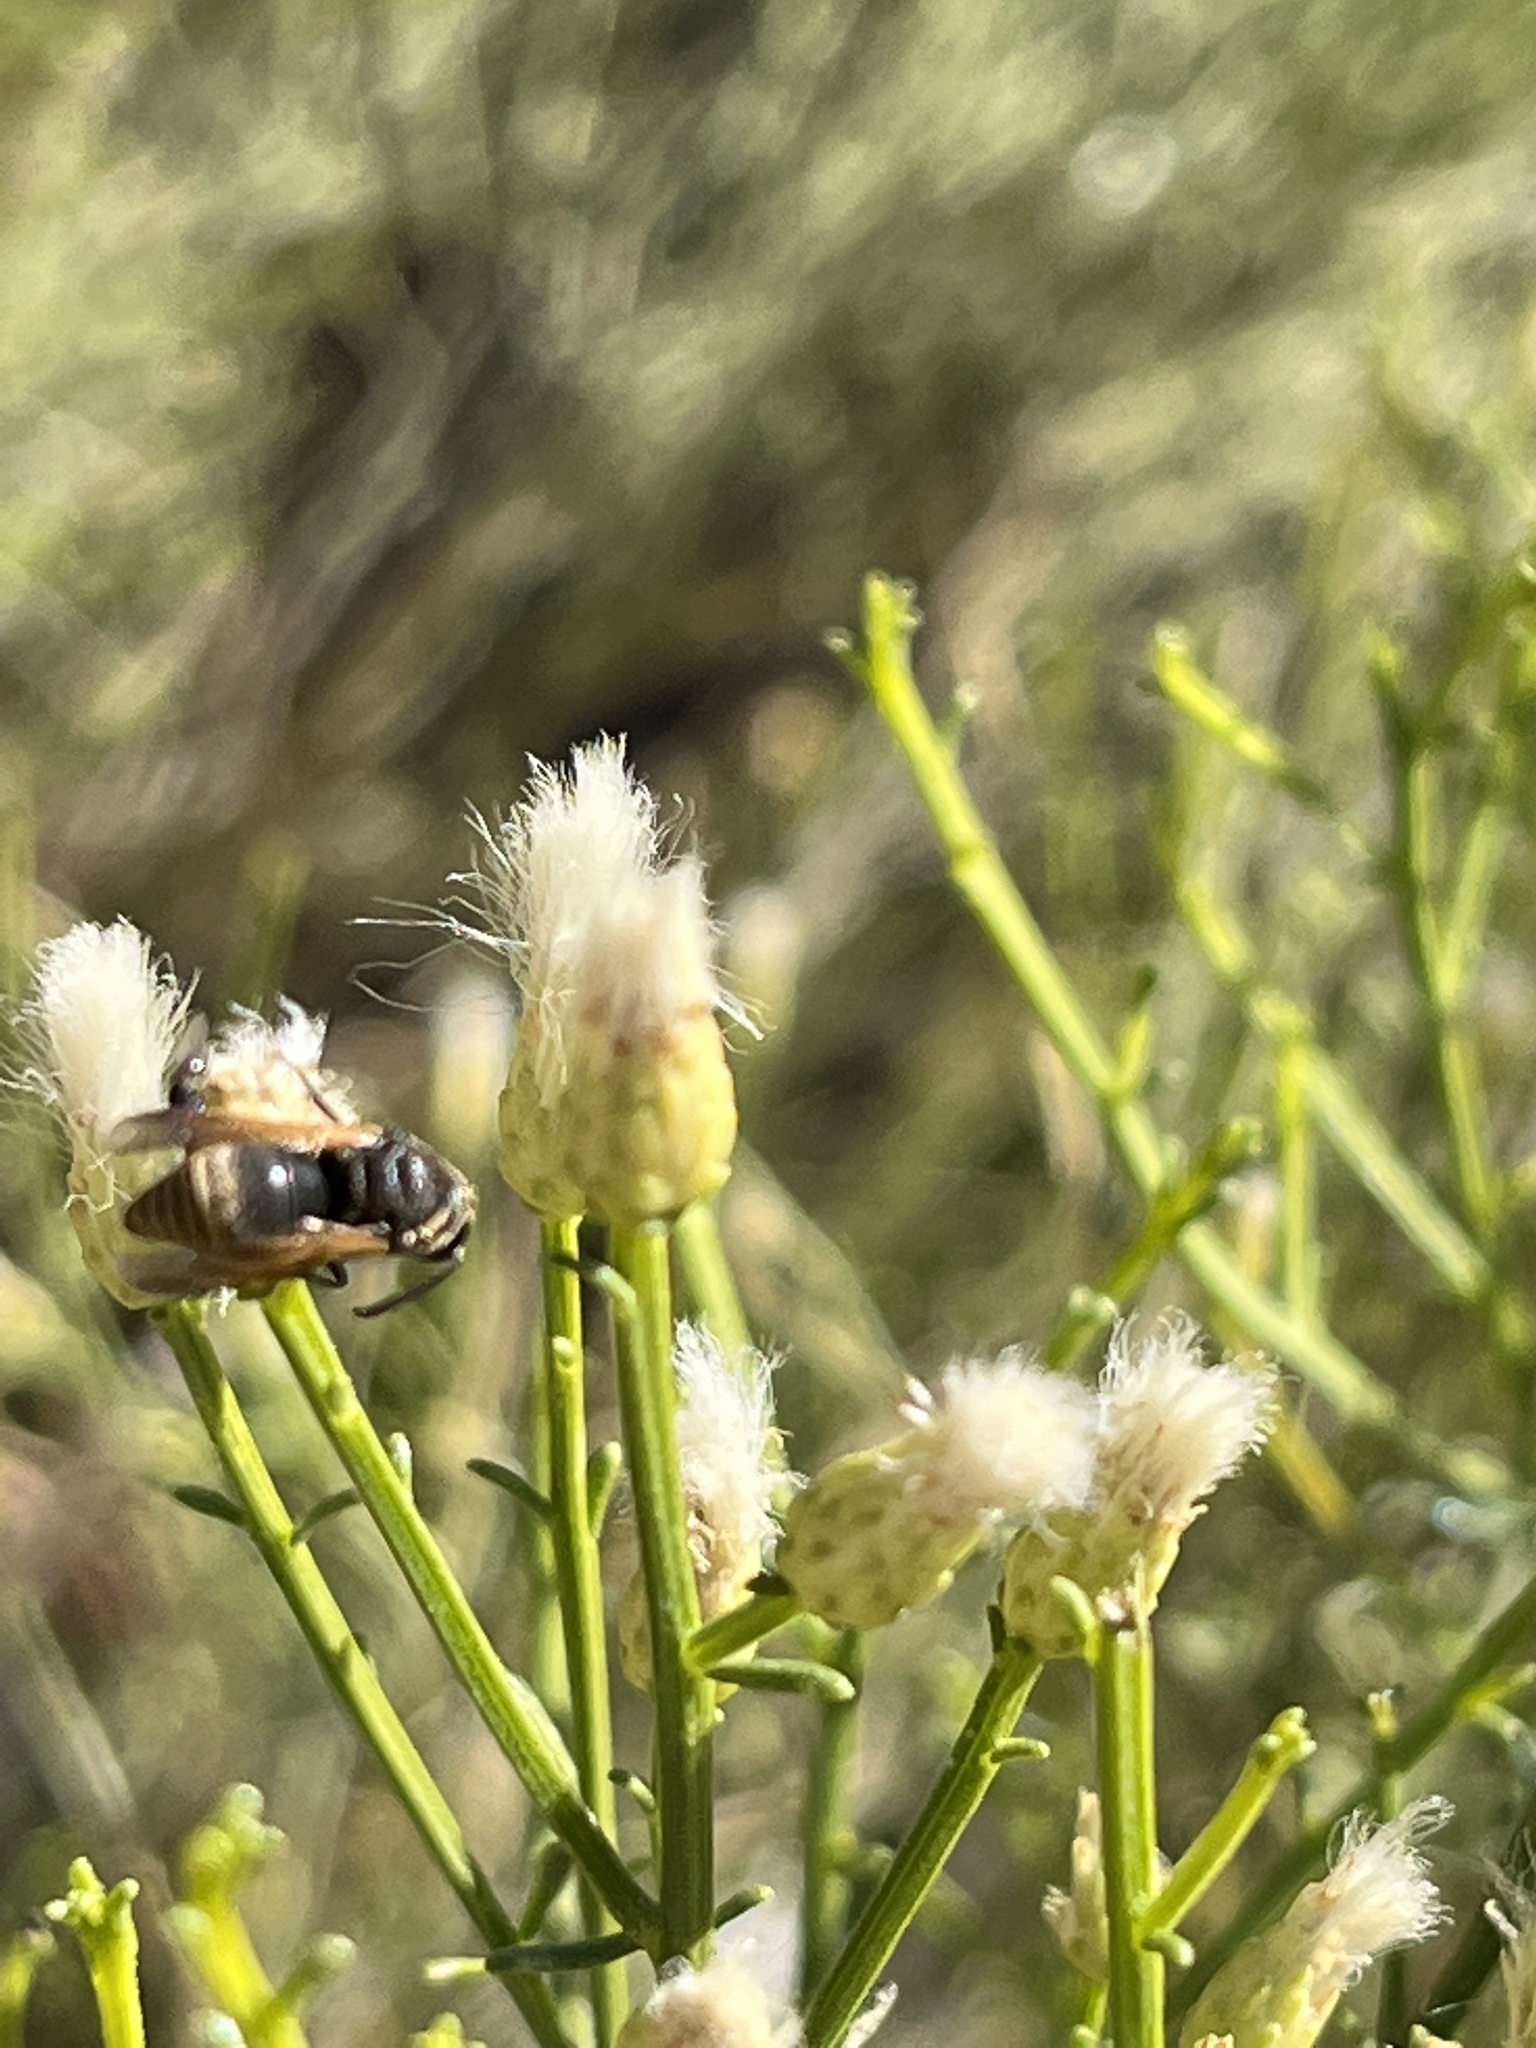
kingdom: Animalia
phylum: Arthropoda
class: Insecta
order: Hymenoptera
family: Eumenidae
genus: Pachodynerus
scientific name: Pachodynerus
